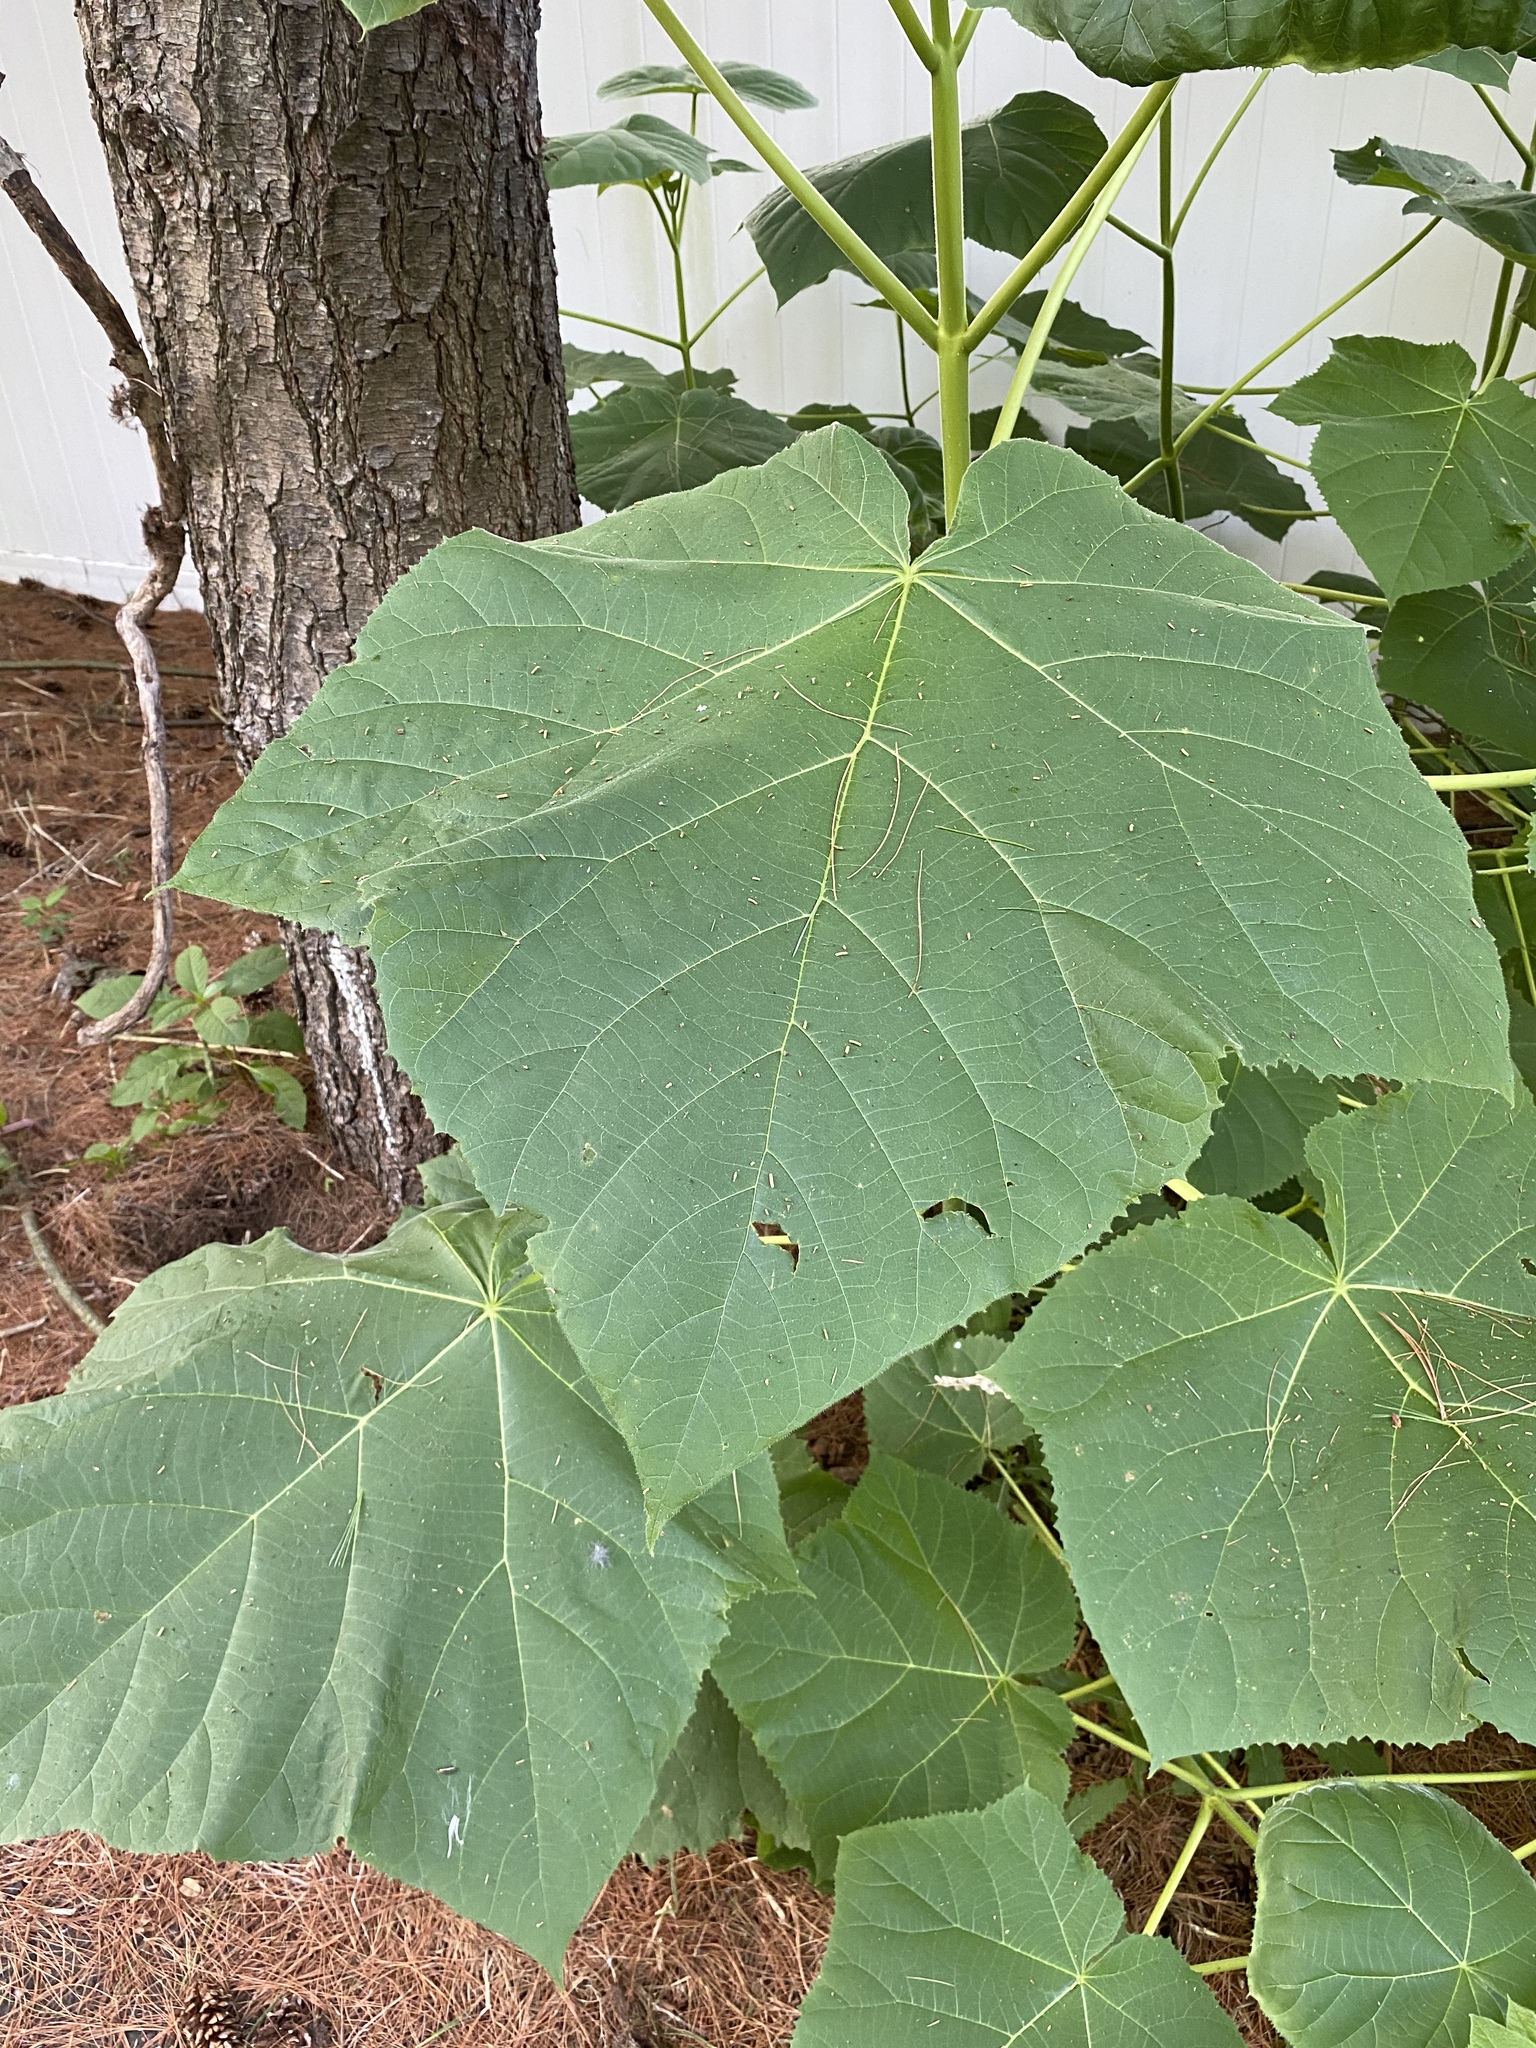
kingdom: Plantae
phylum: Tracheophyta
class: Magnoliopsida
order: Lamiales
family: Paulowniaceae
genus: Paulownia
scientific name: Paulownia tomentosa
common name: Foxglove-tree
